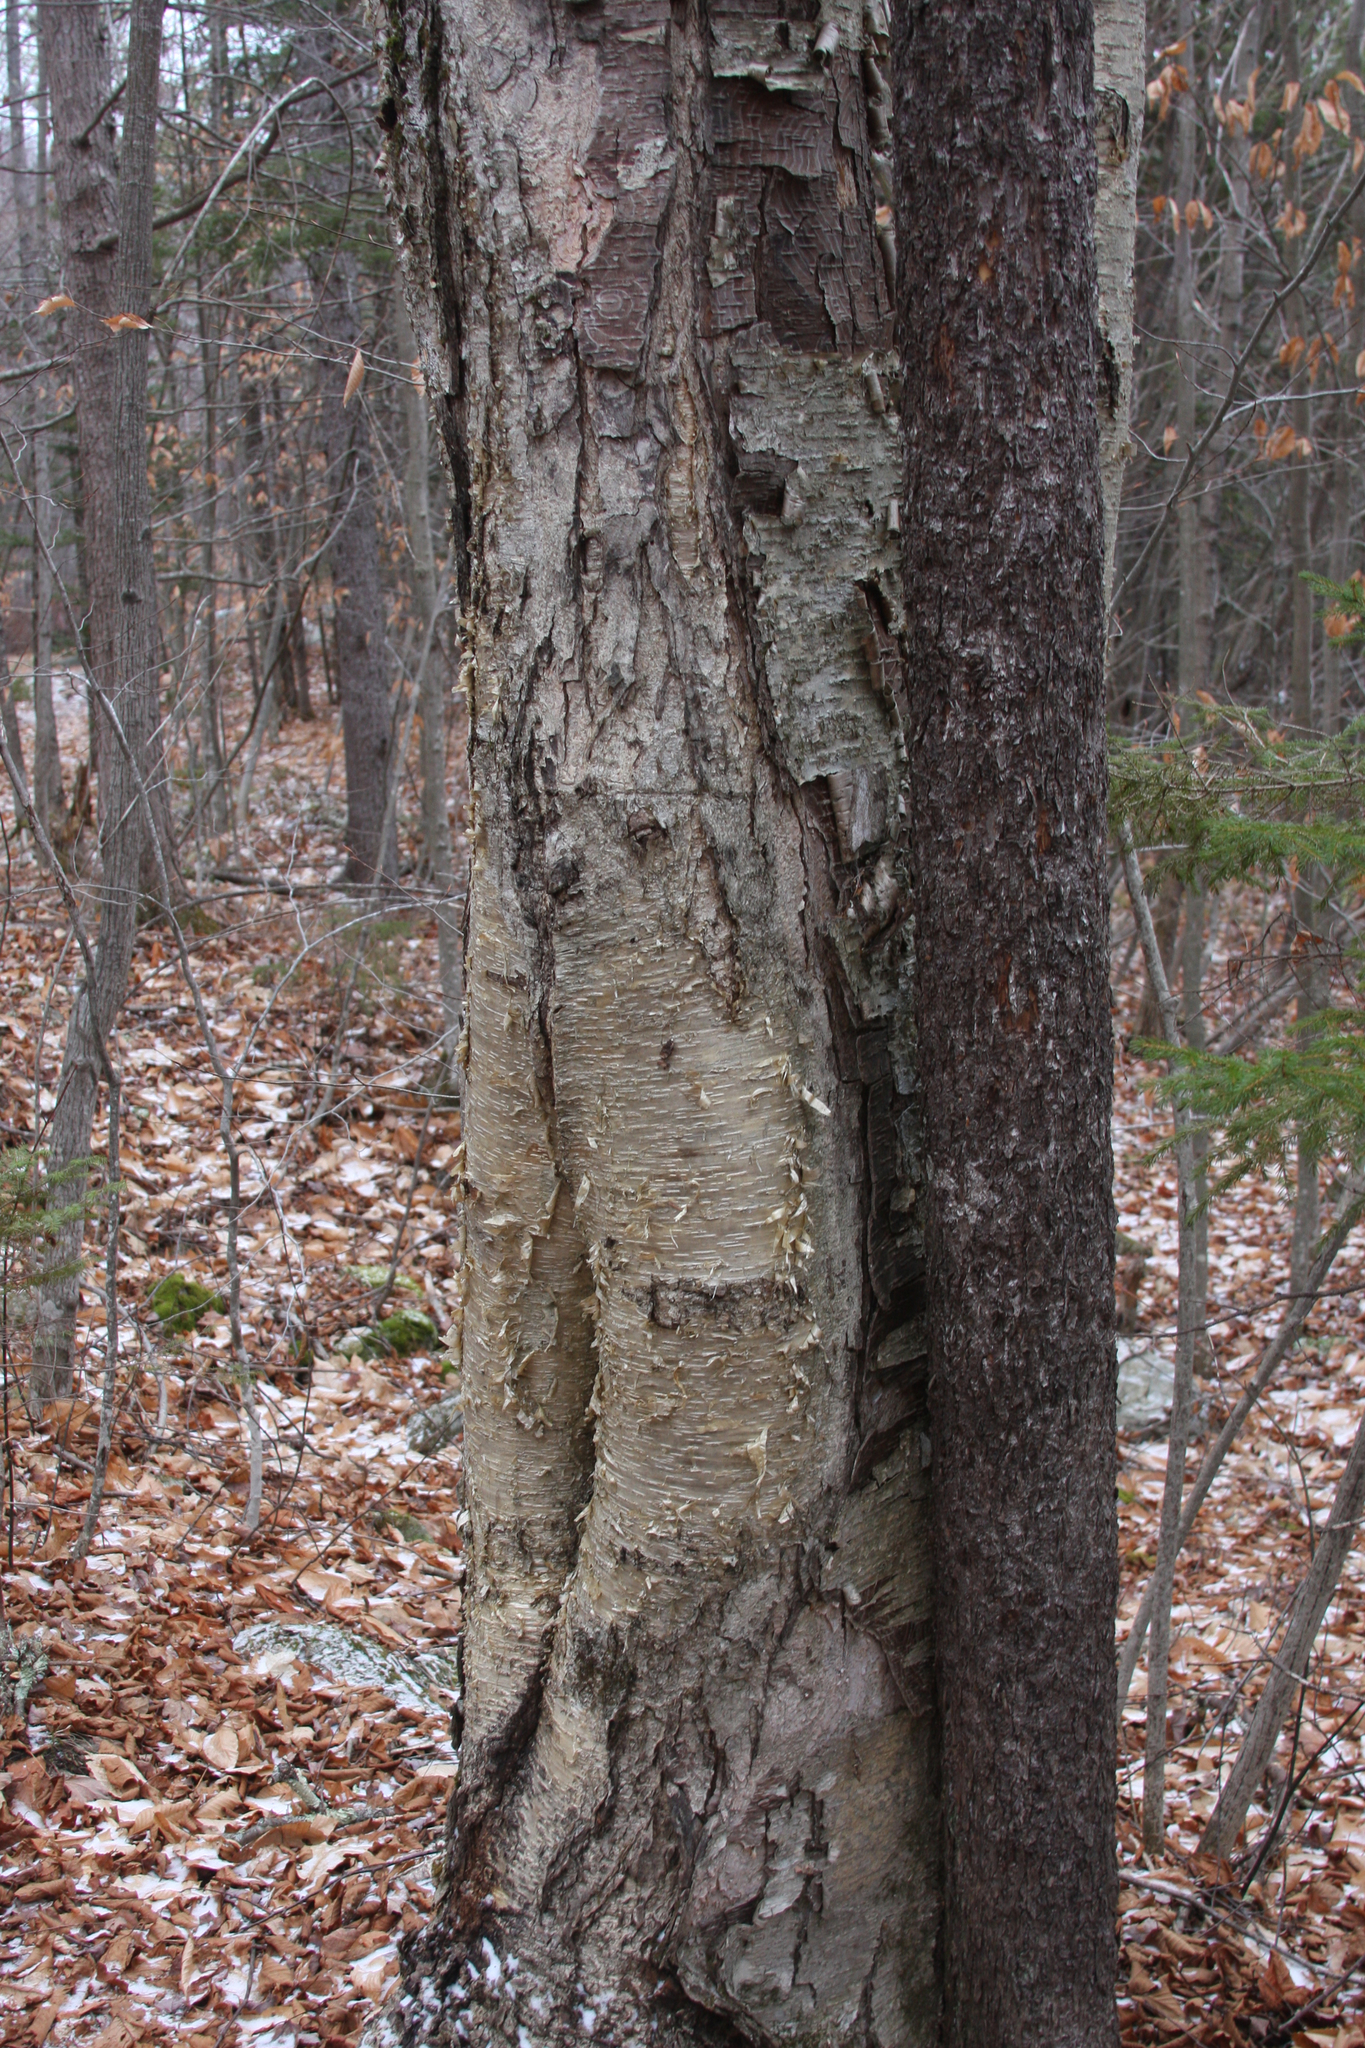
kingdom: Plantae
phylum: Tracheophyta
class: Magnoliopsida
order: Fagales
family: Betulaceae
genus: Betula
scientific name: Betula alleghaniensis
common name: Yellow birch
